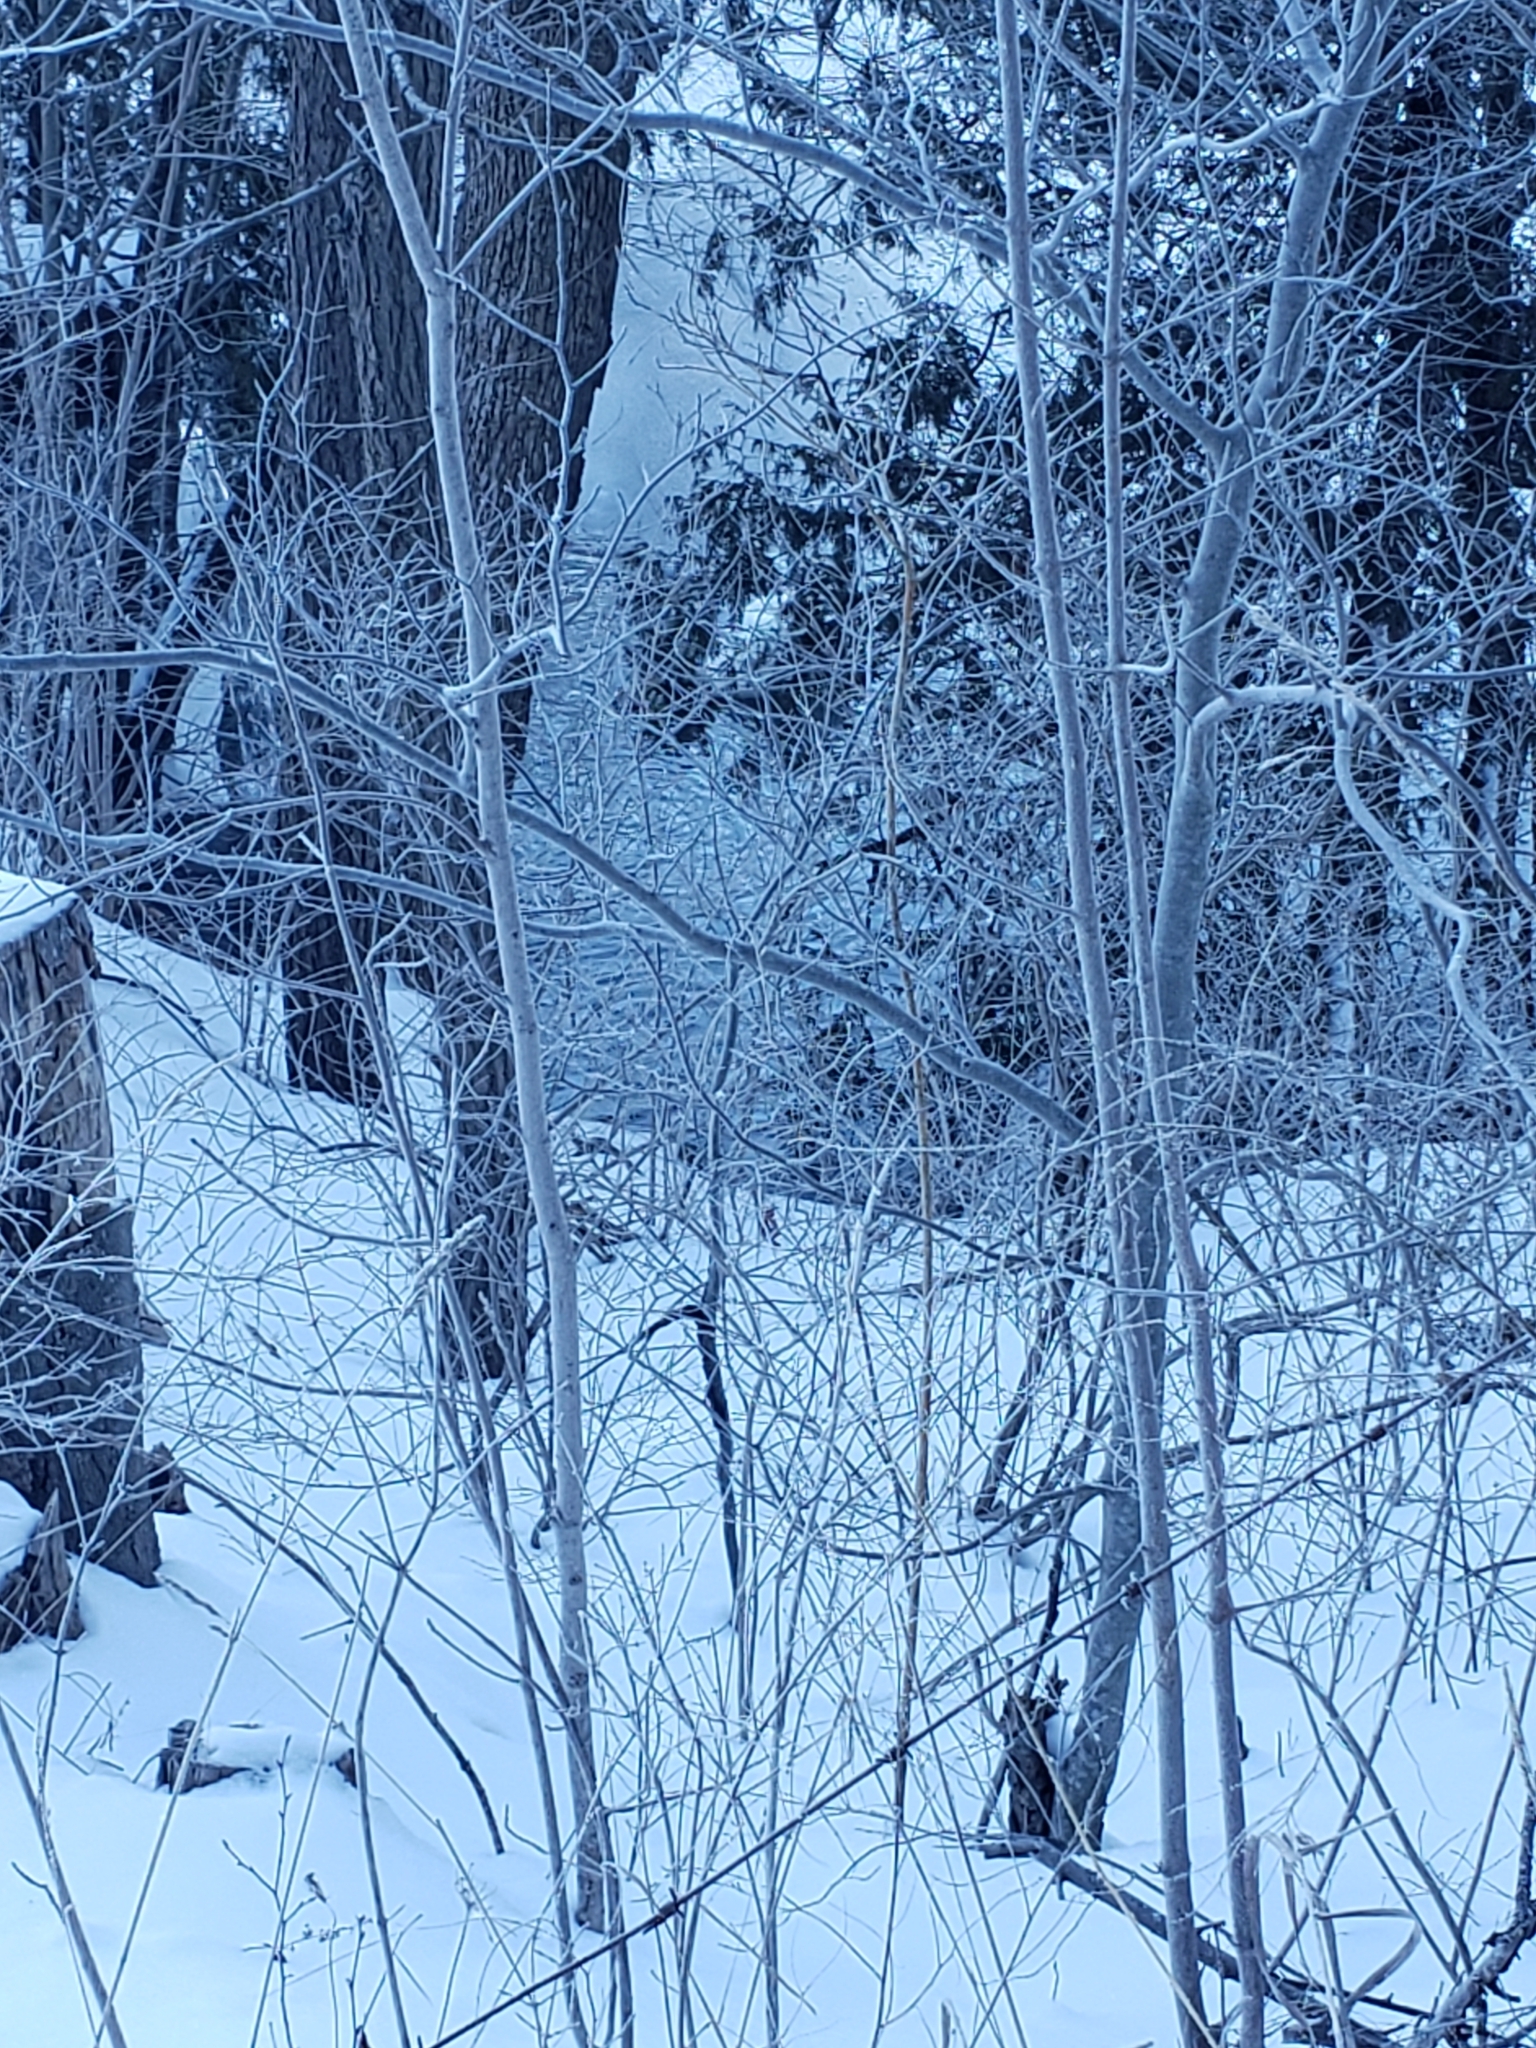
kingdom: Animalia
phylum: Chordata
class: Aves
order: Anseriformes
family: Anatidae
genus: Cygnus
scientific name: Cygnus olor
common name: Mute swan
